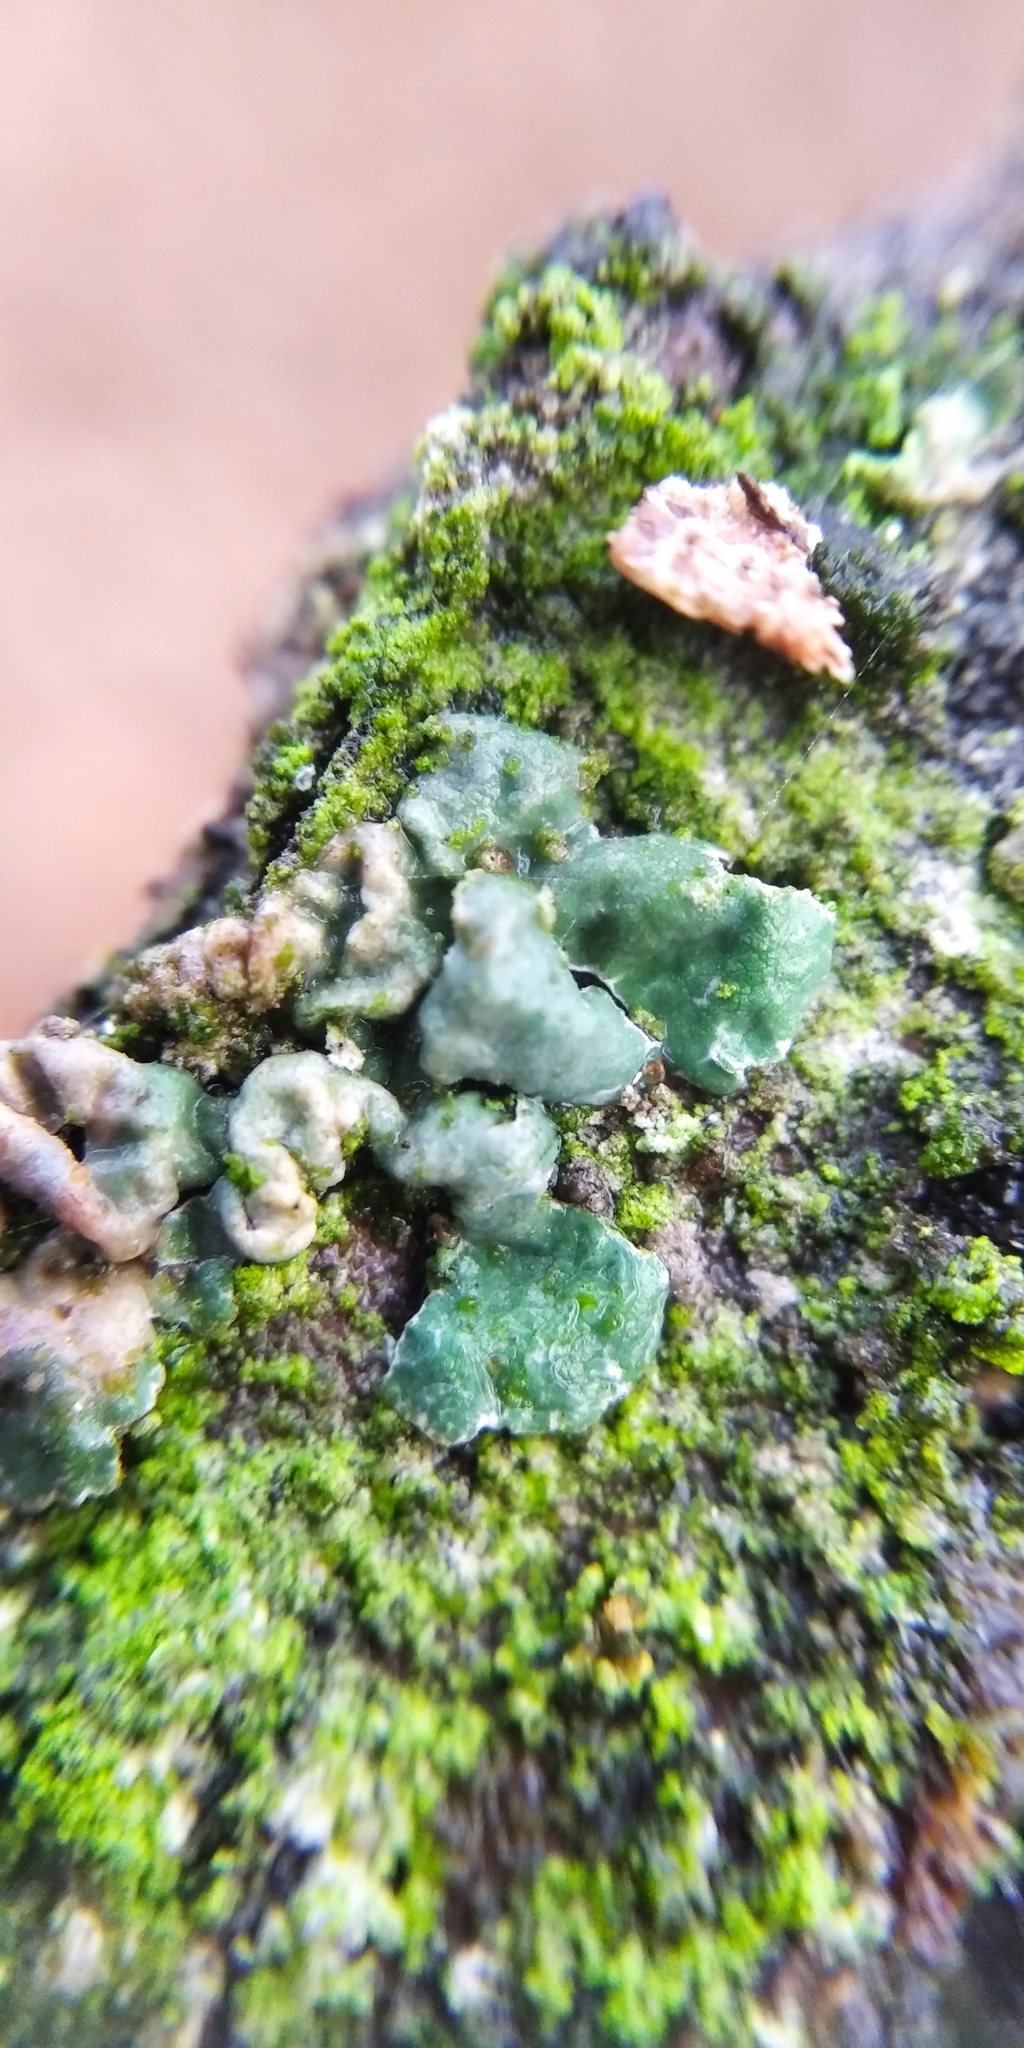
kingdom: Fungi
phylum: Ascomycota
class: Lecanoromycetes
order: Lecanorales
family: Parmeliaceae
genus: Parmelia
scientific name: Parmelia sulcata
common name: Netted shield lichen
